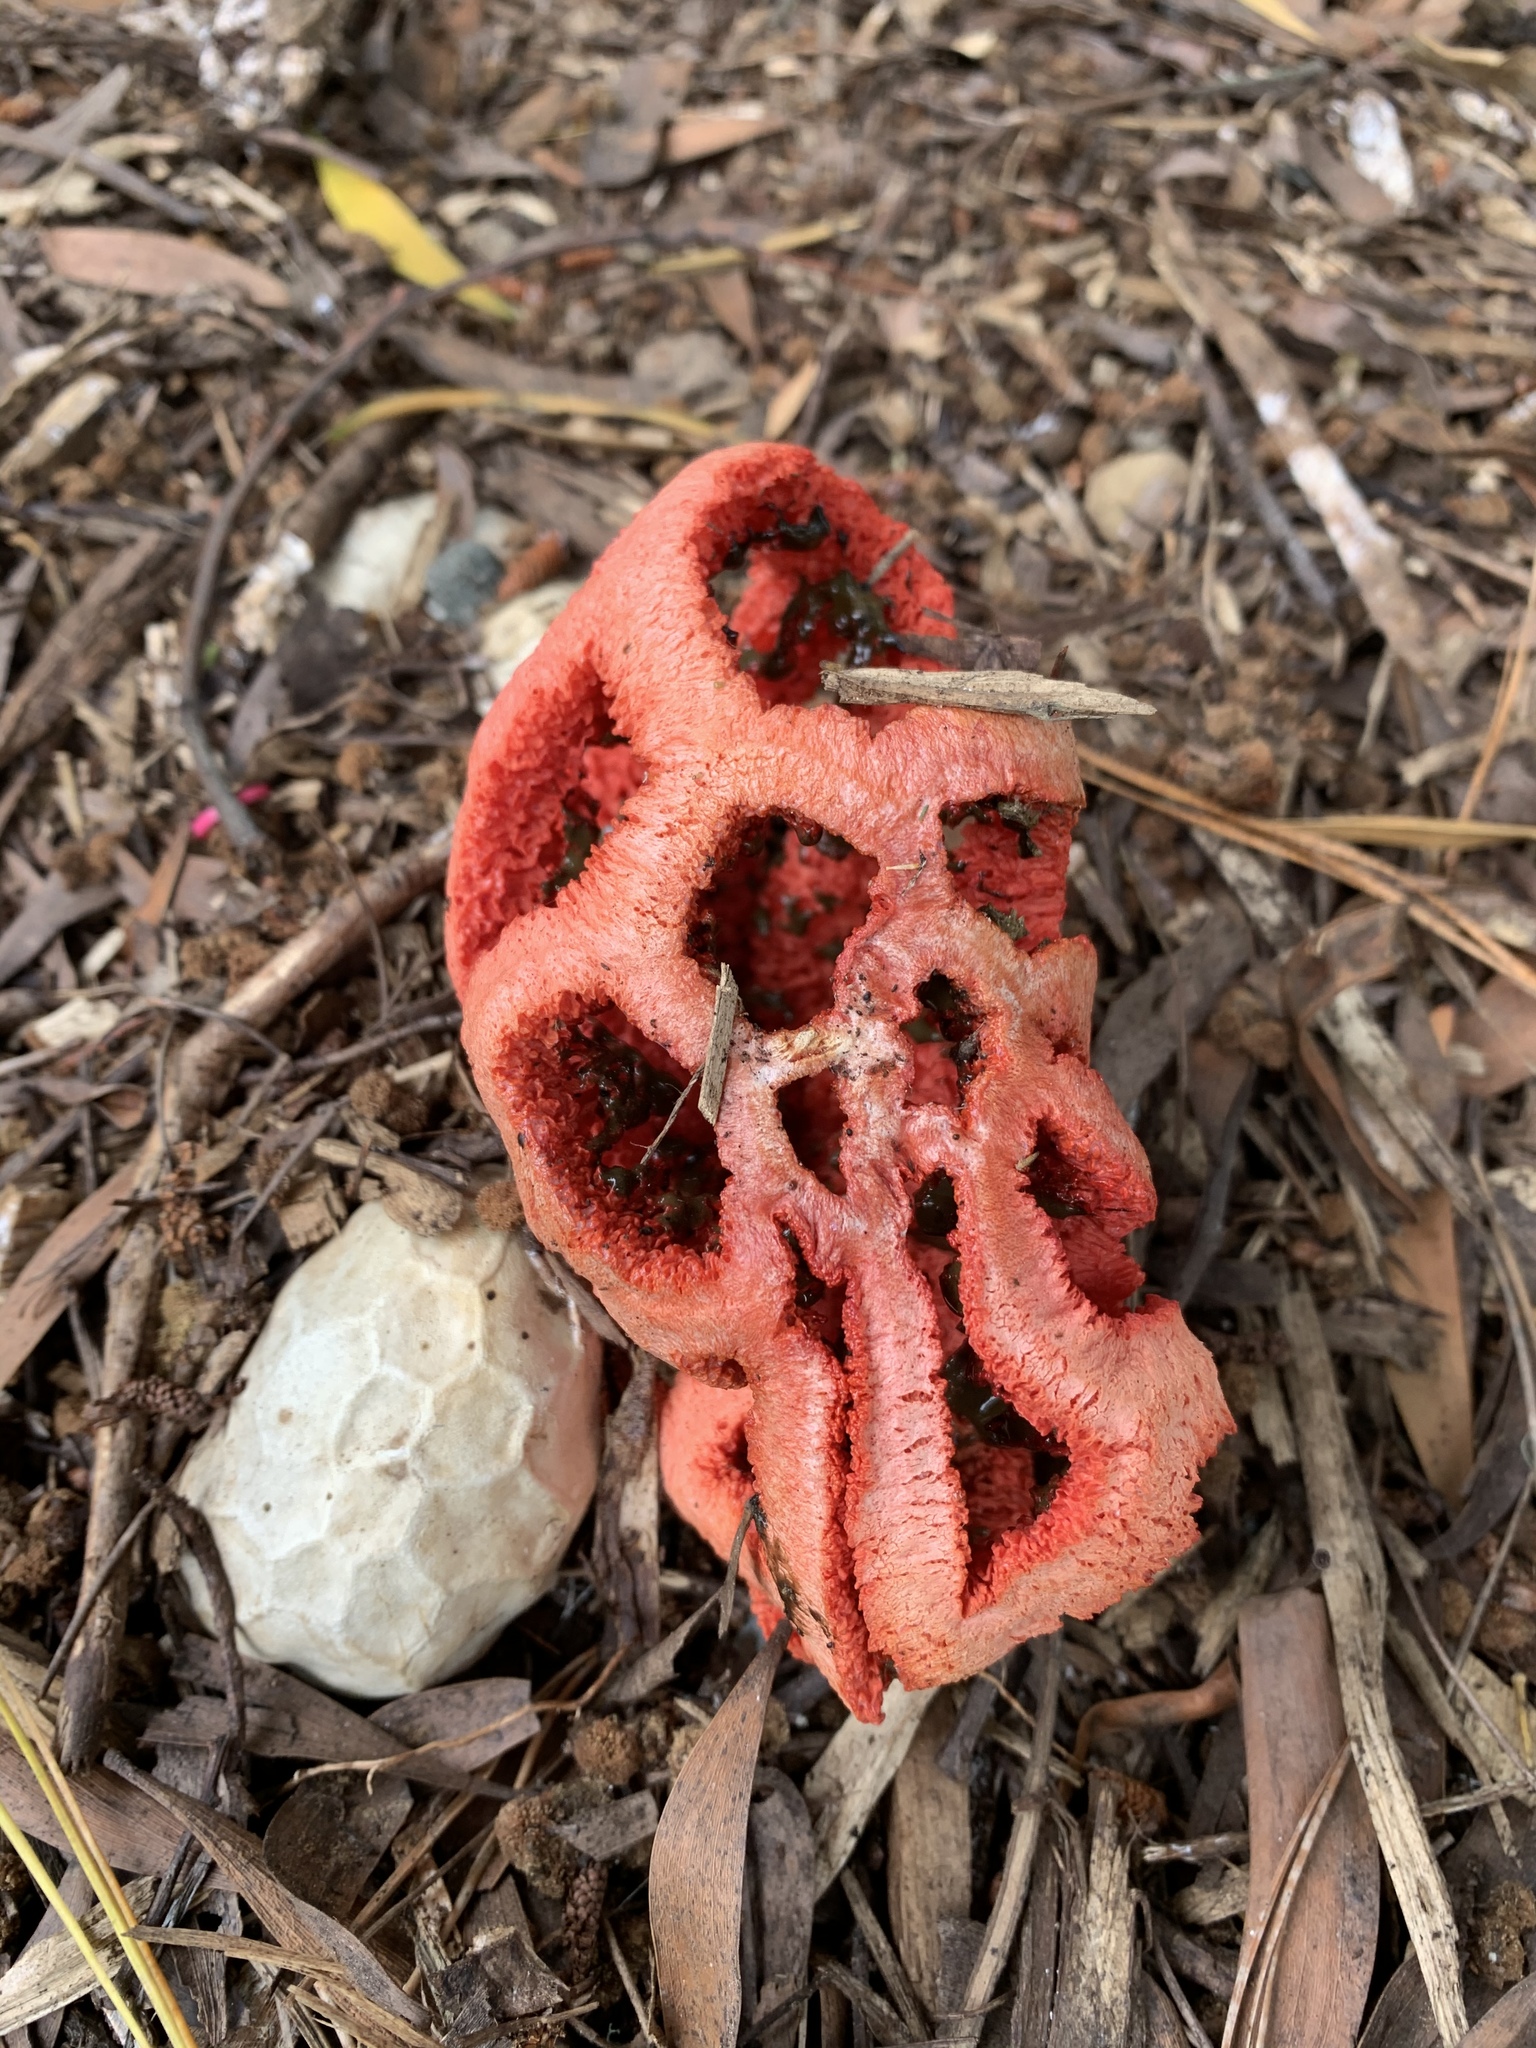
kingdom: Fungi
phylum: Basidiomycota
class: Agaricomycetes
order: Phallales
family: Phallaceae
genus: Clathrus
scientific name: Clathrus ruber
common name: Red cage
